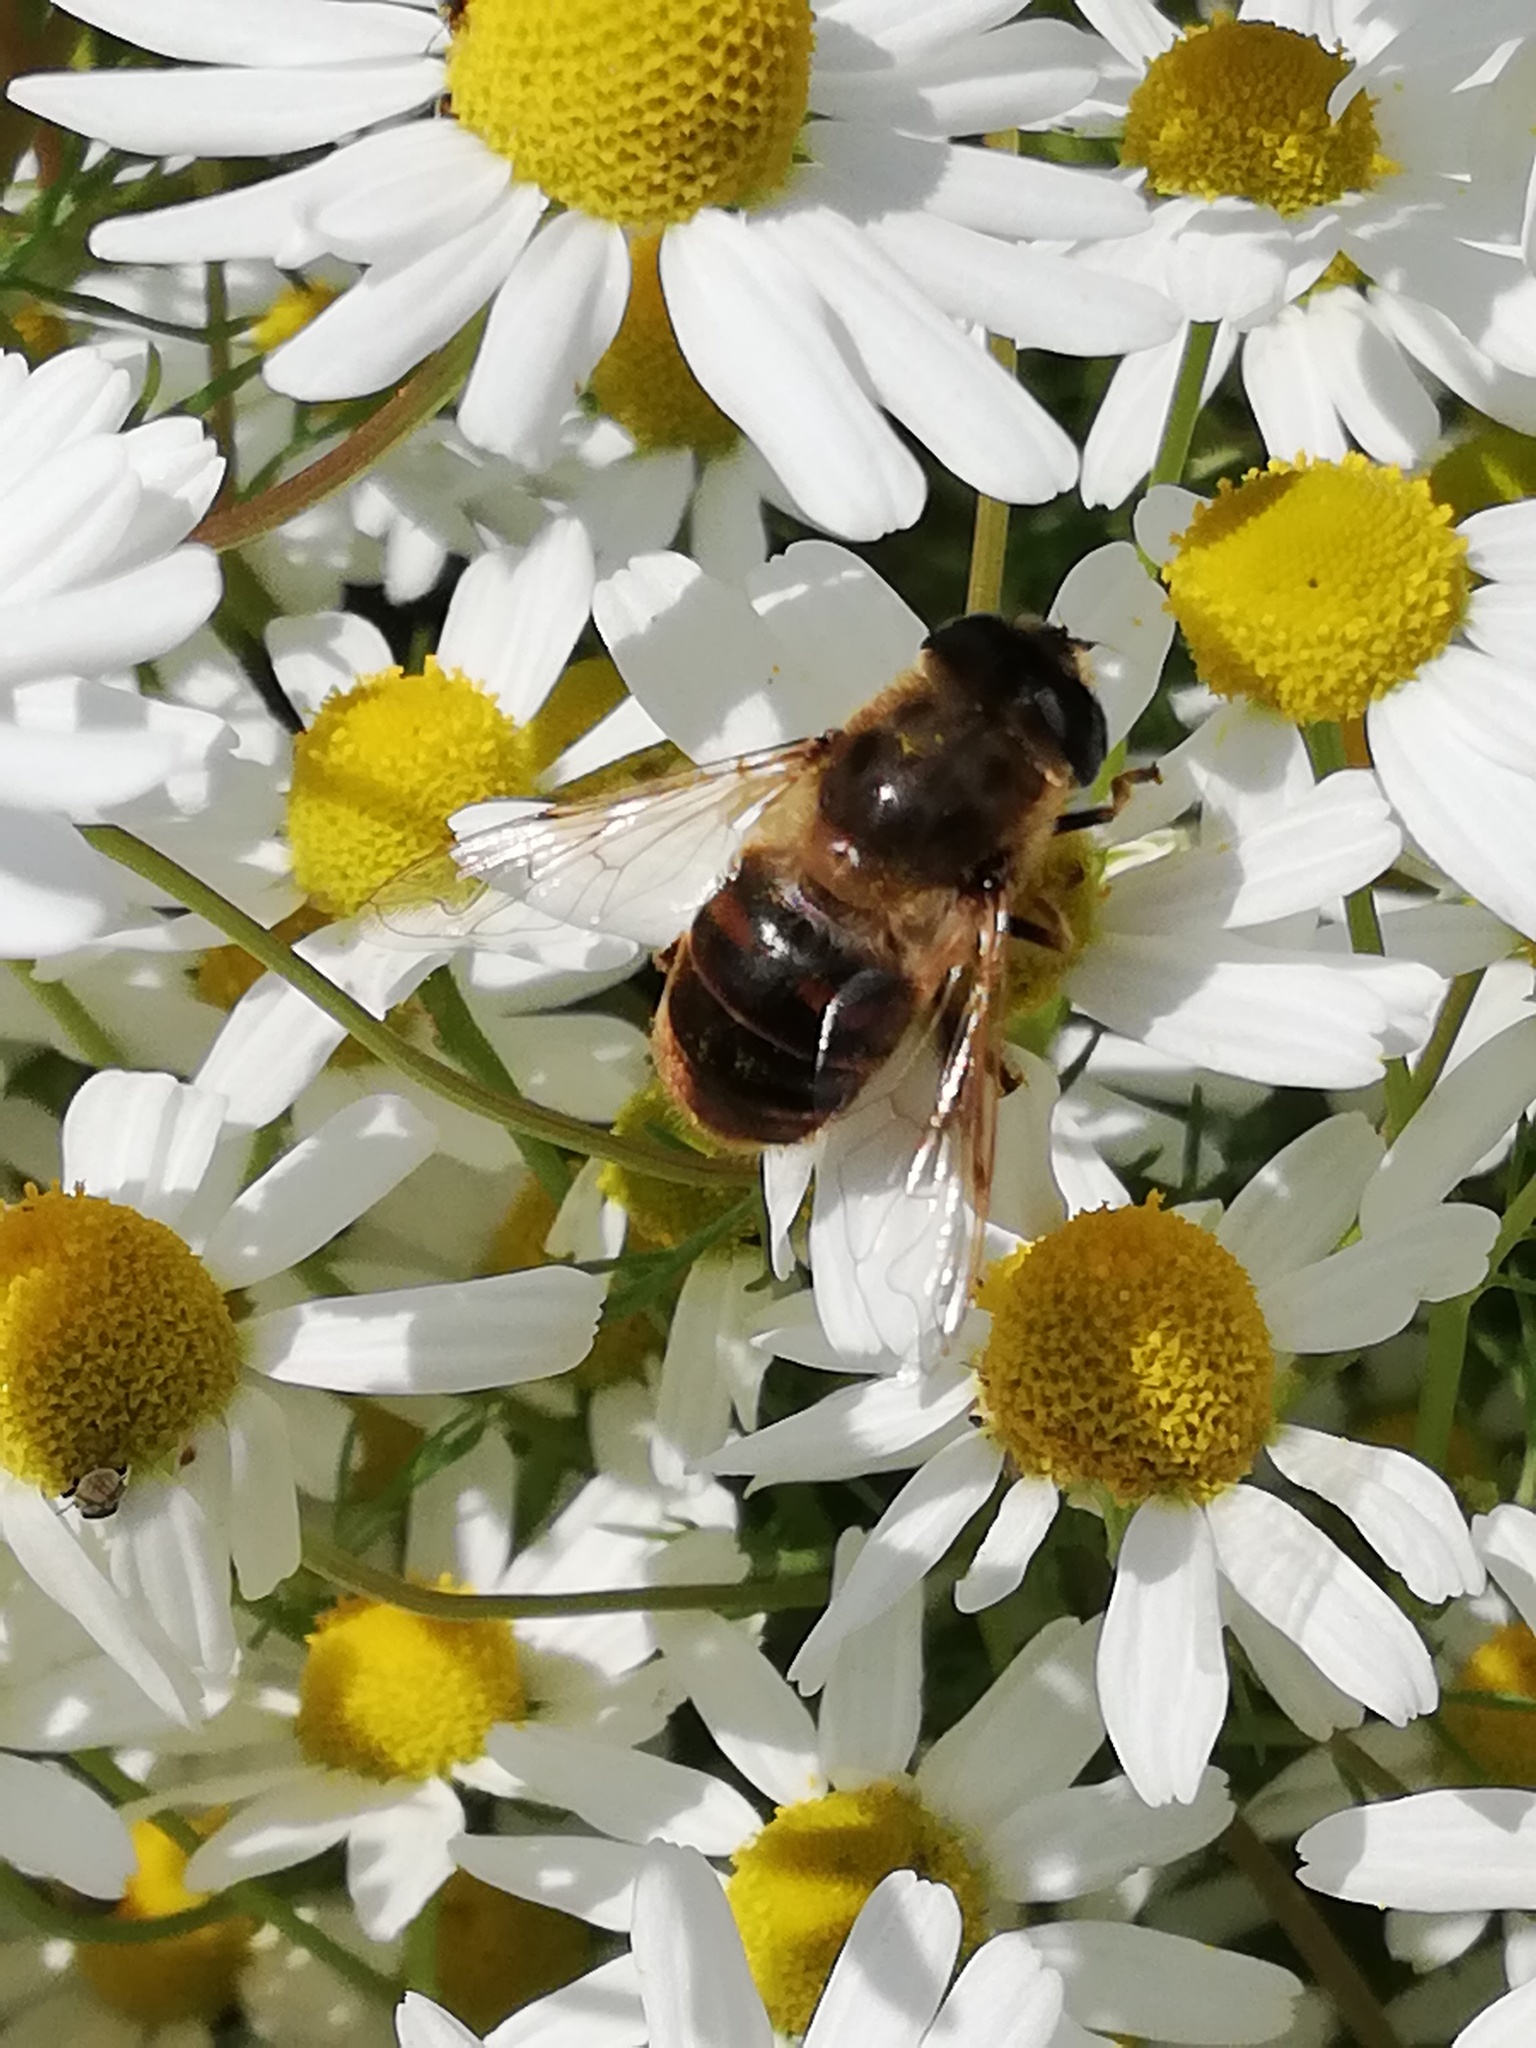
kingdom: Animalia
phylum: Arthropoda
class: Insecta
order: Diptera
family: Syrphidae
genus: Eristalis
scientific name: Eristalis tenax
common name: Drone fly
